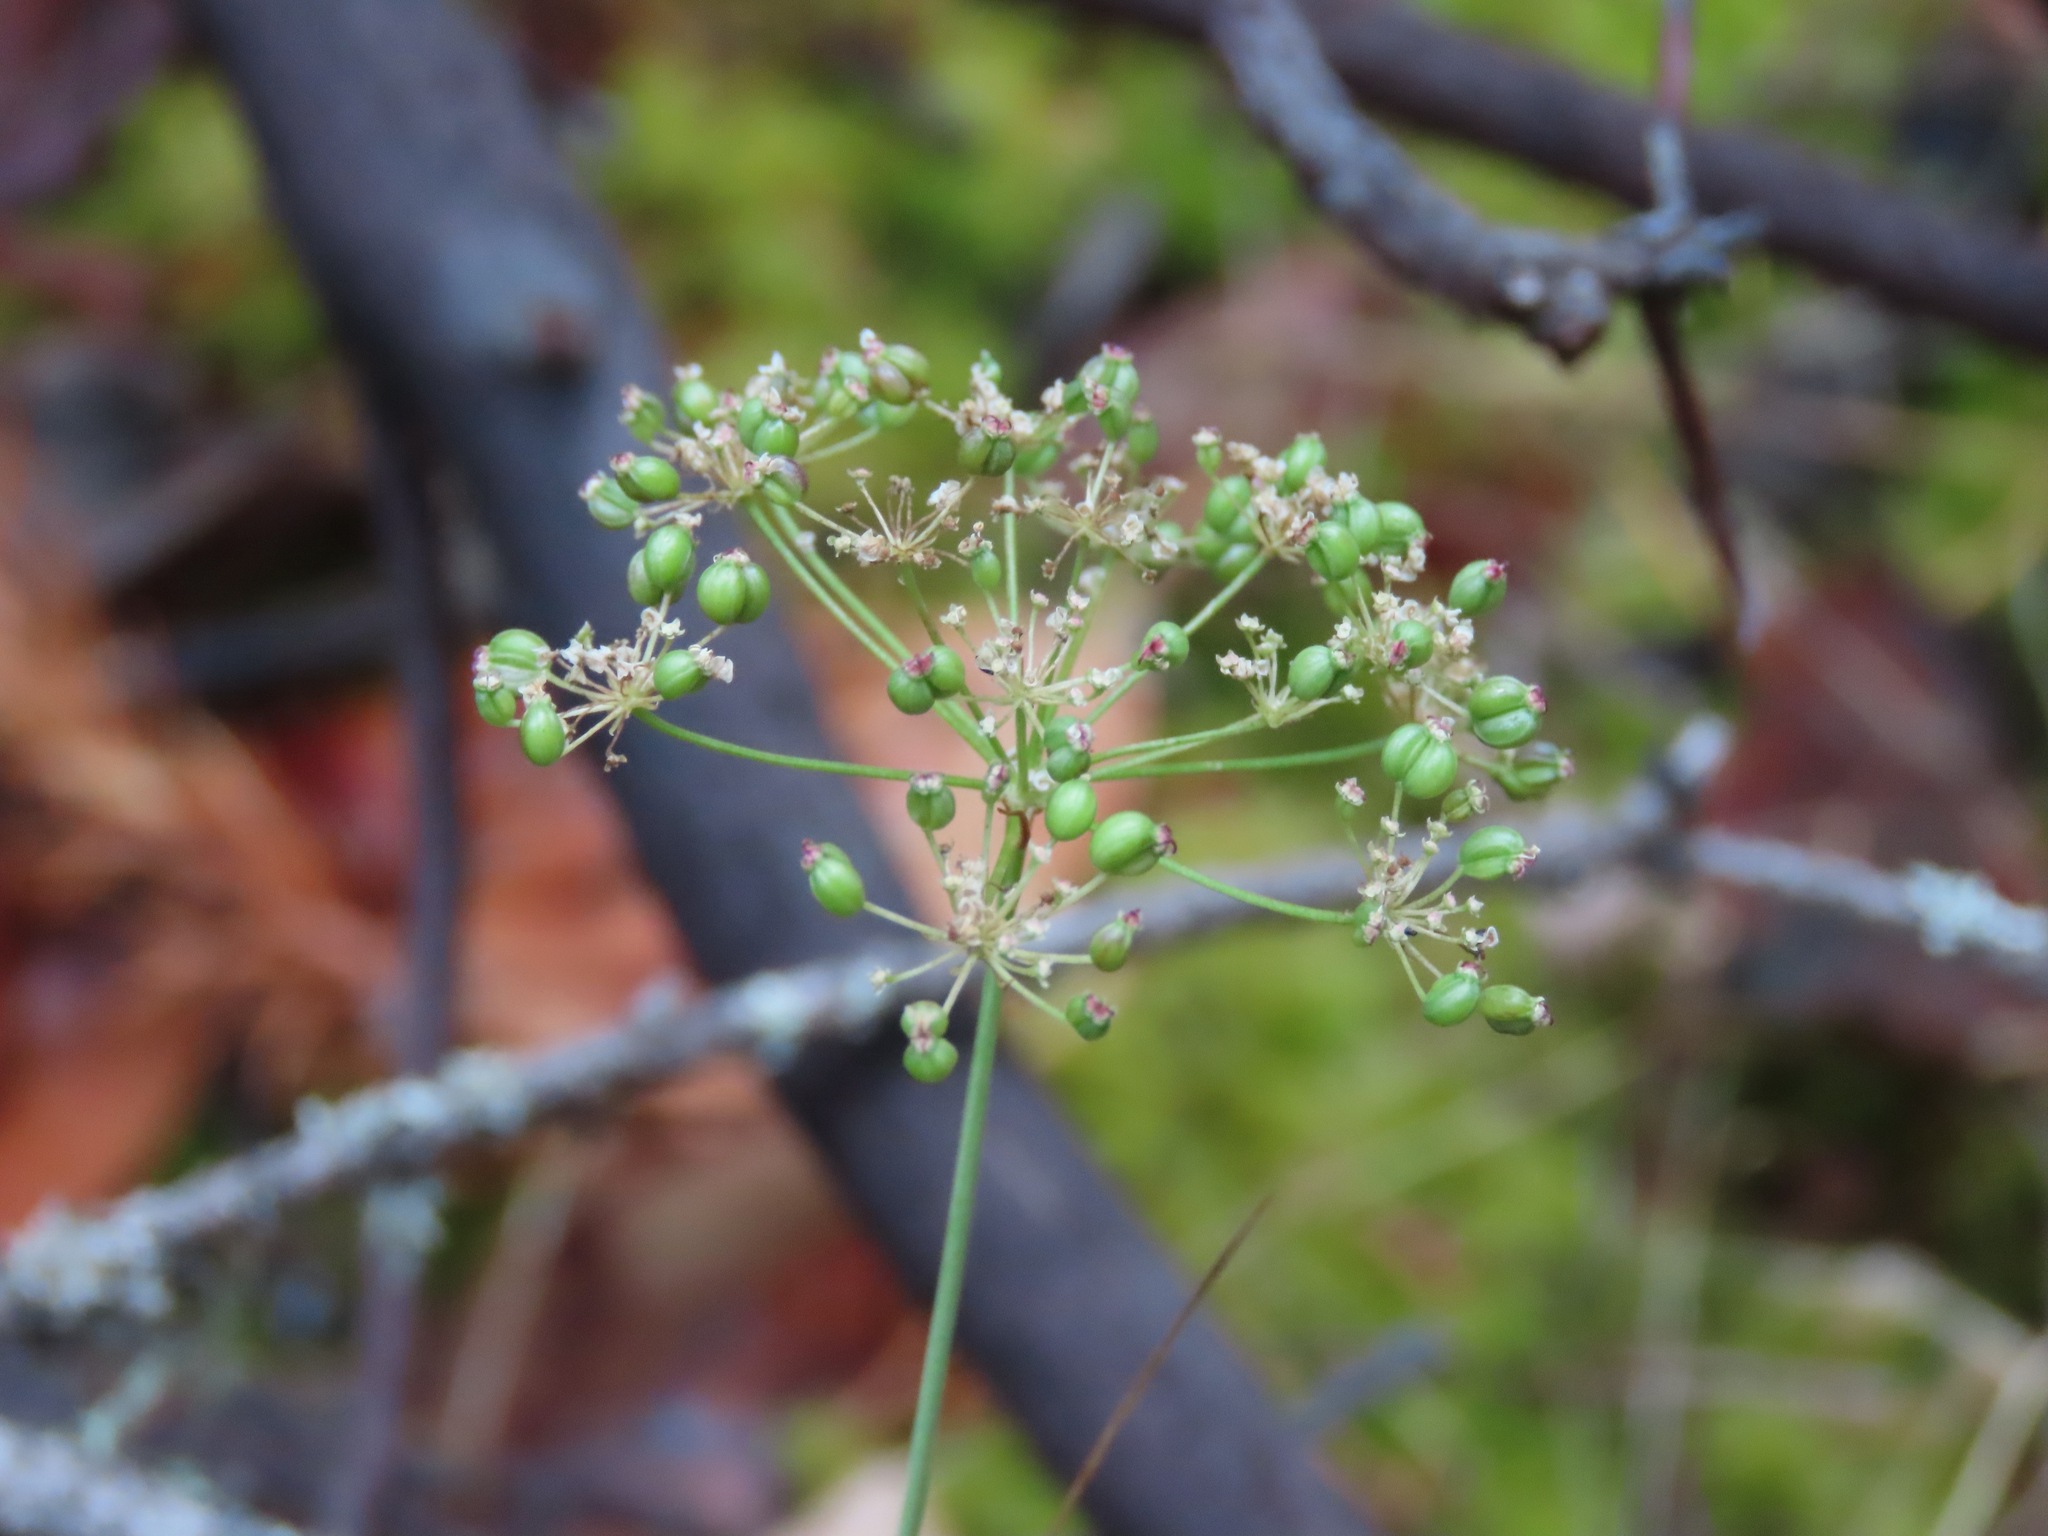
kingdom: Plantae
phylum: Tracheophyta
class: Magnoliopsida
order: Apiales
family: Apiaceae
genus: Perideridia
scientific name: Perideridia gairdneri
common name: False caraway
